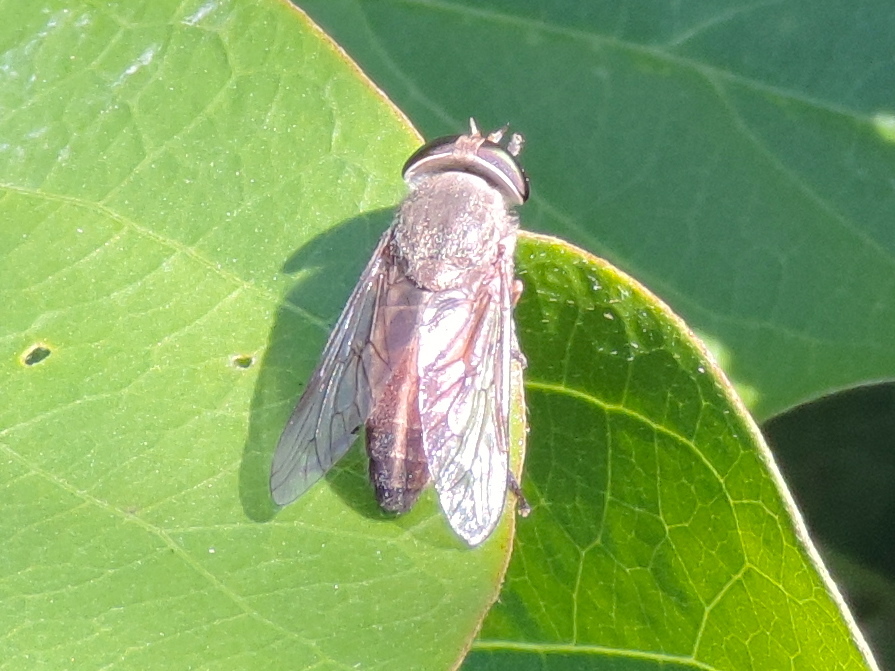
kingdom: Animalia
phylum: Arthropoda
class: Insecta
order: Diptera
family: Tabanidae
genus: Tabanus
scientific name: Tabanus
